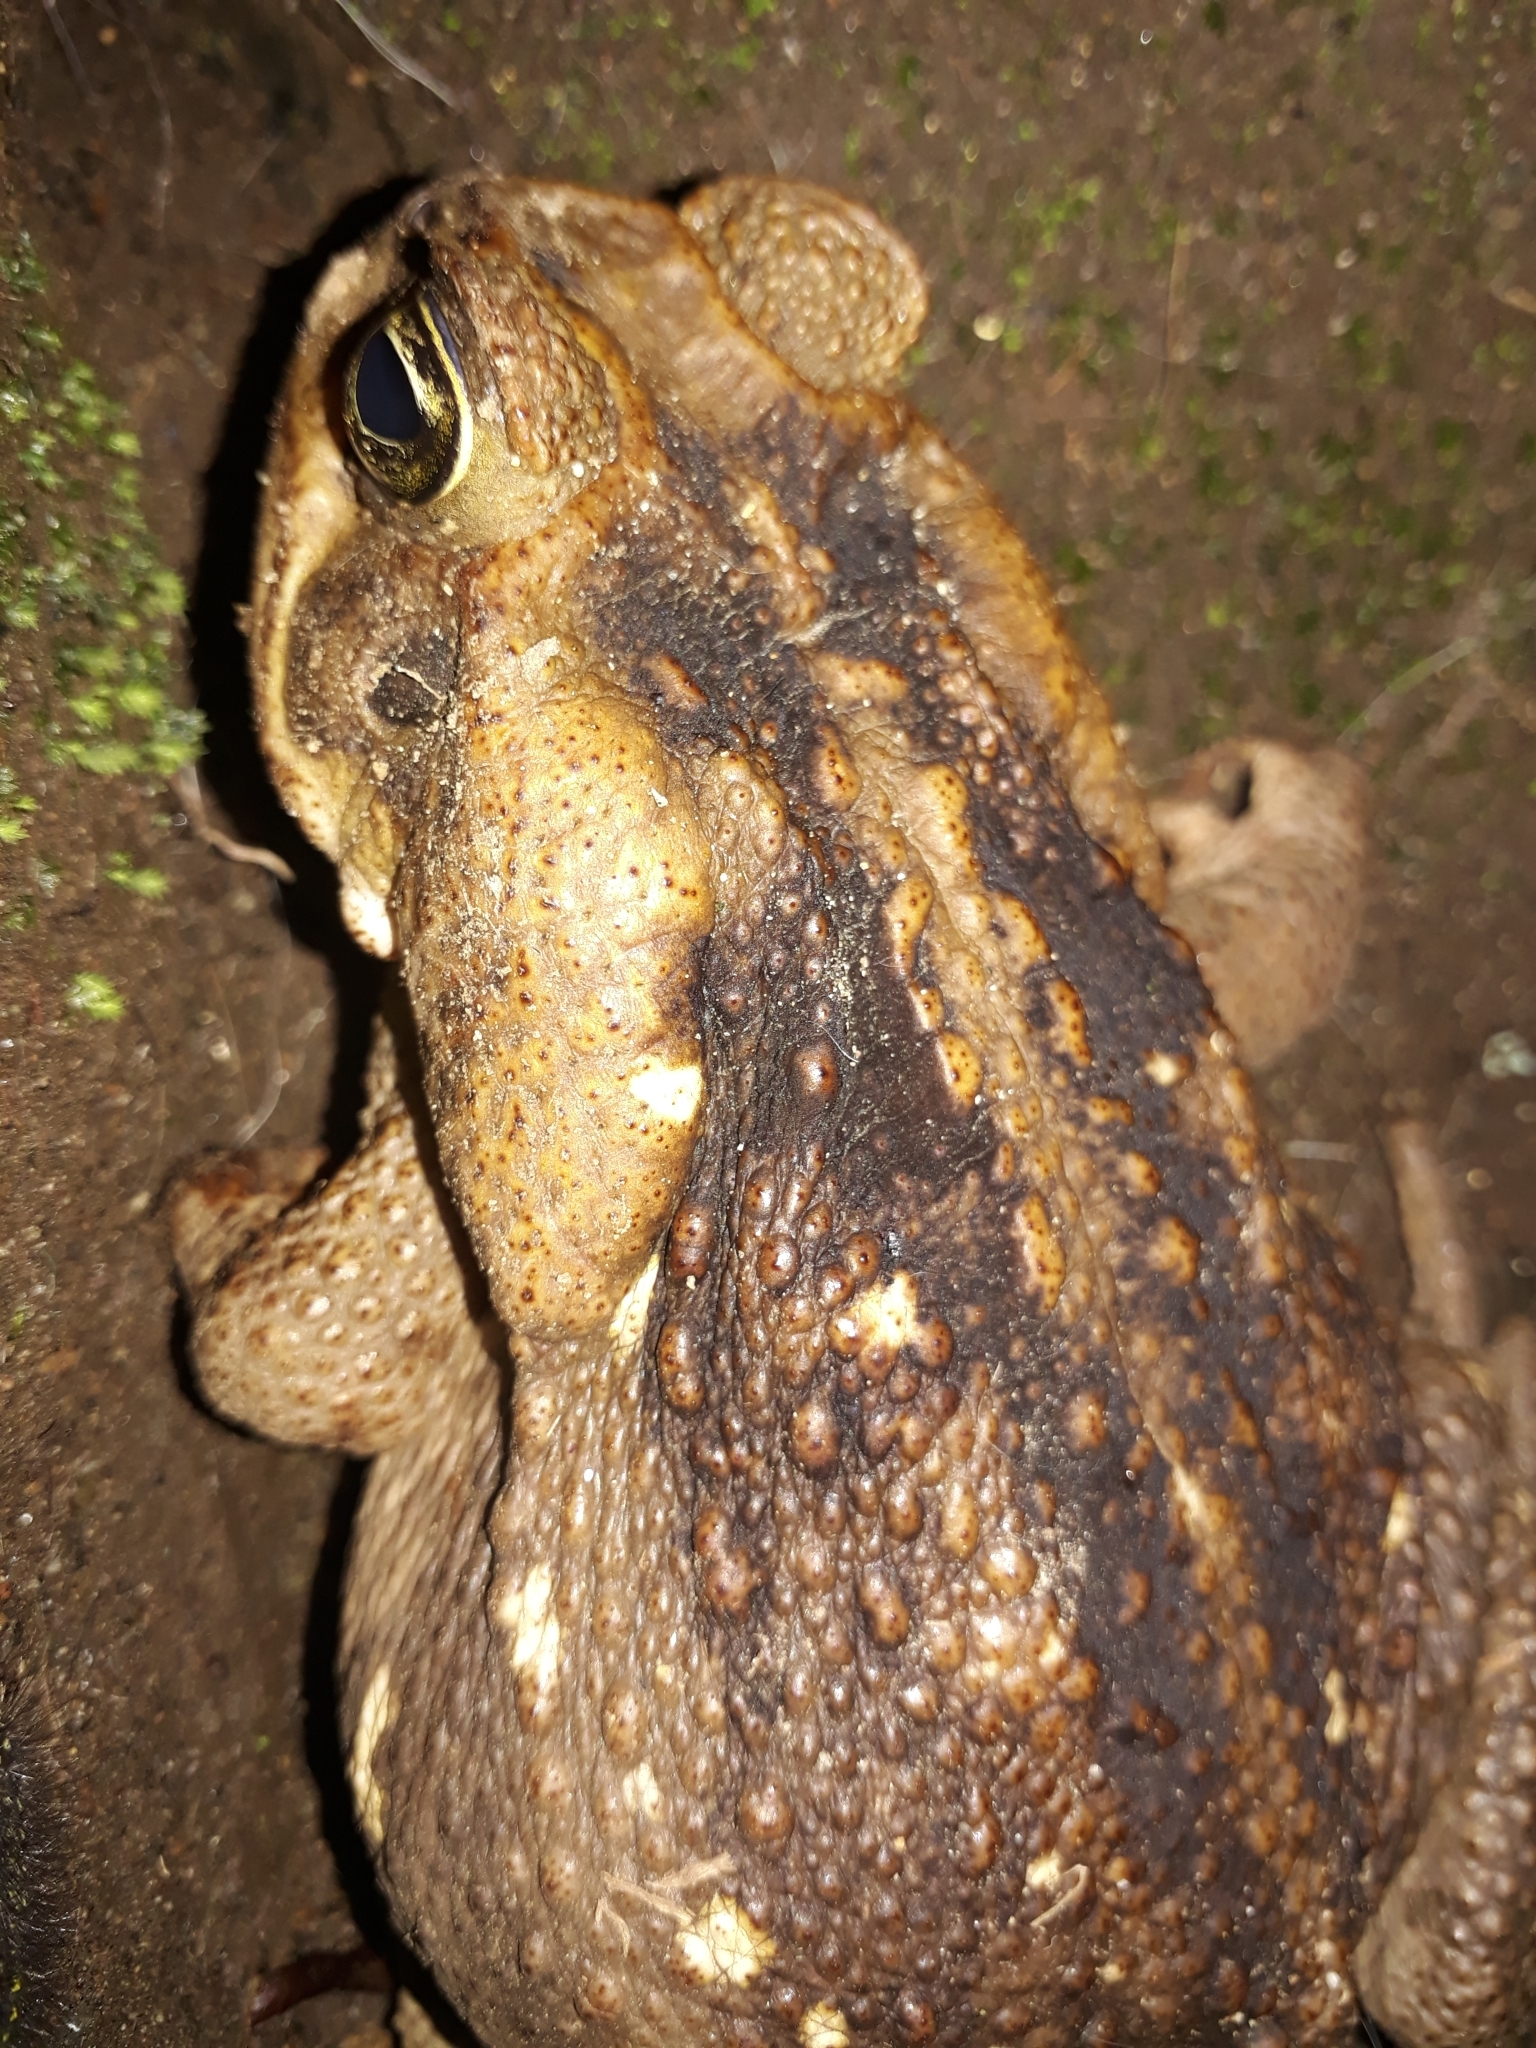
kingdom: Animalia
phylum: Chordata
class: Amphibia
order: Anura
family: Bufonidae
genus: Rhinella
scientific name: Rhinella horribilis
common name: Mesoamerican cane toad
